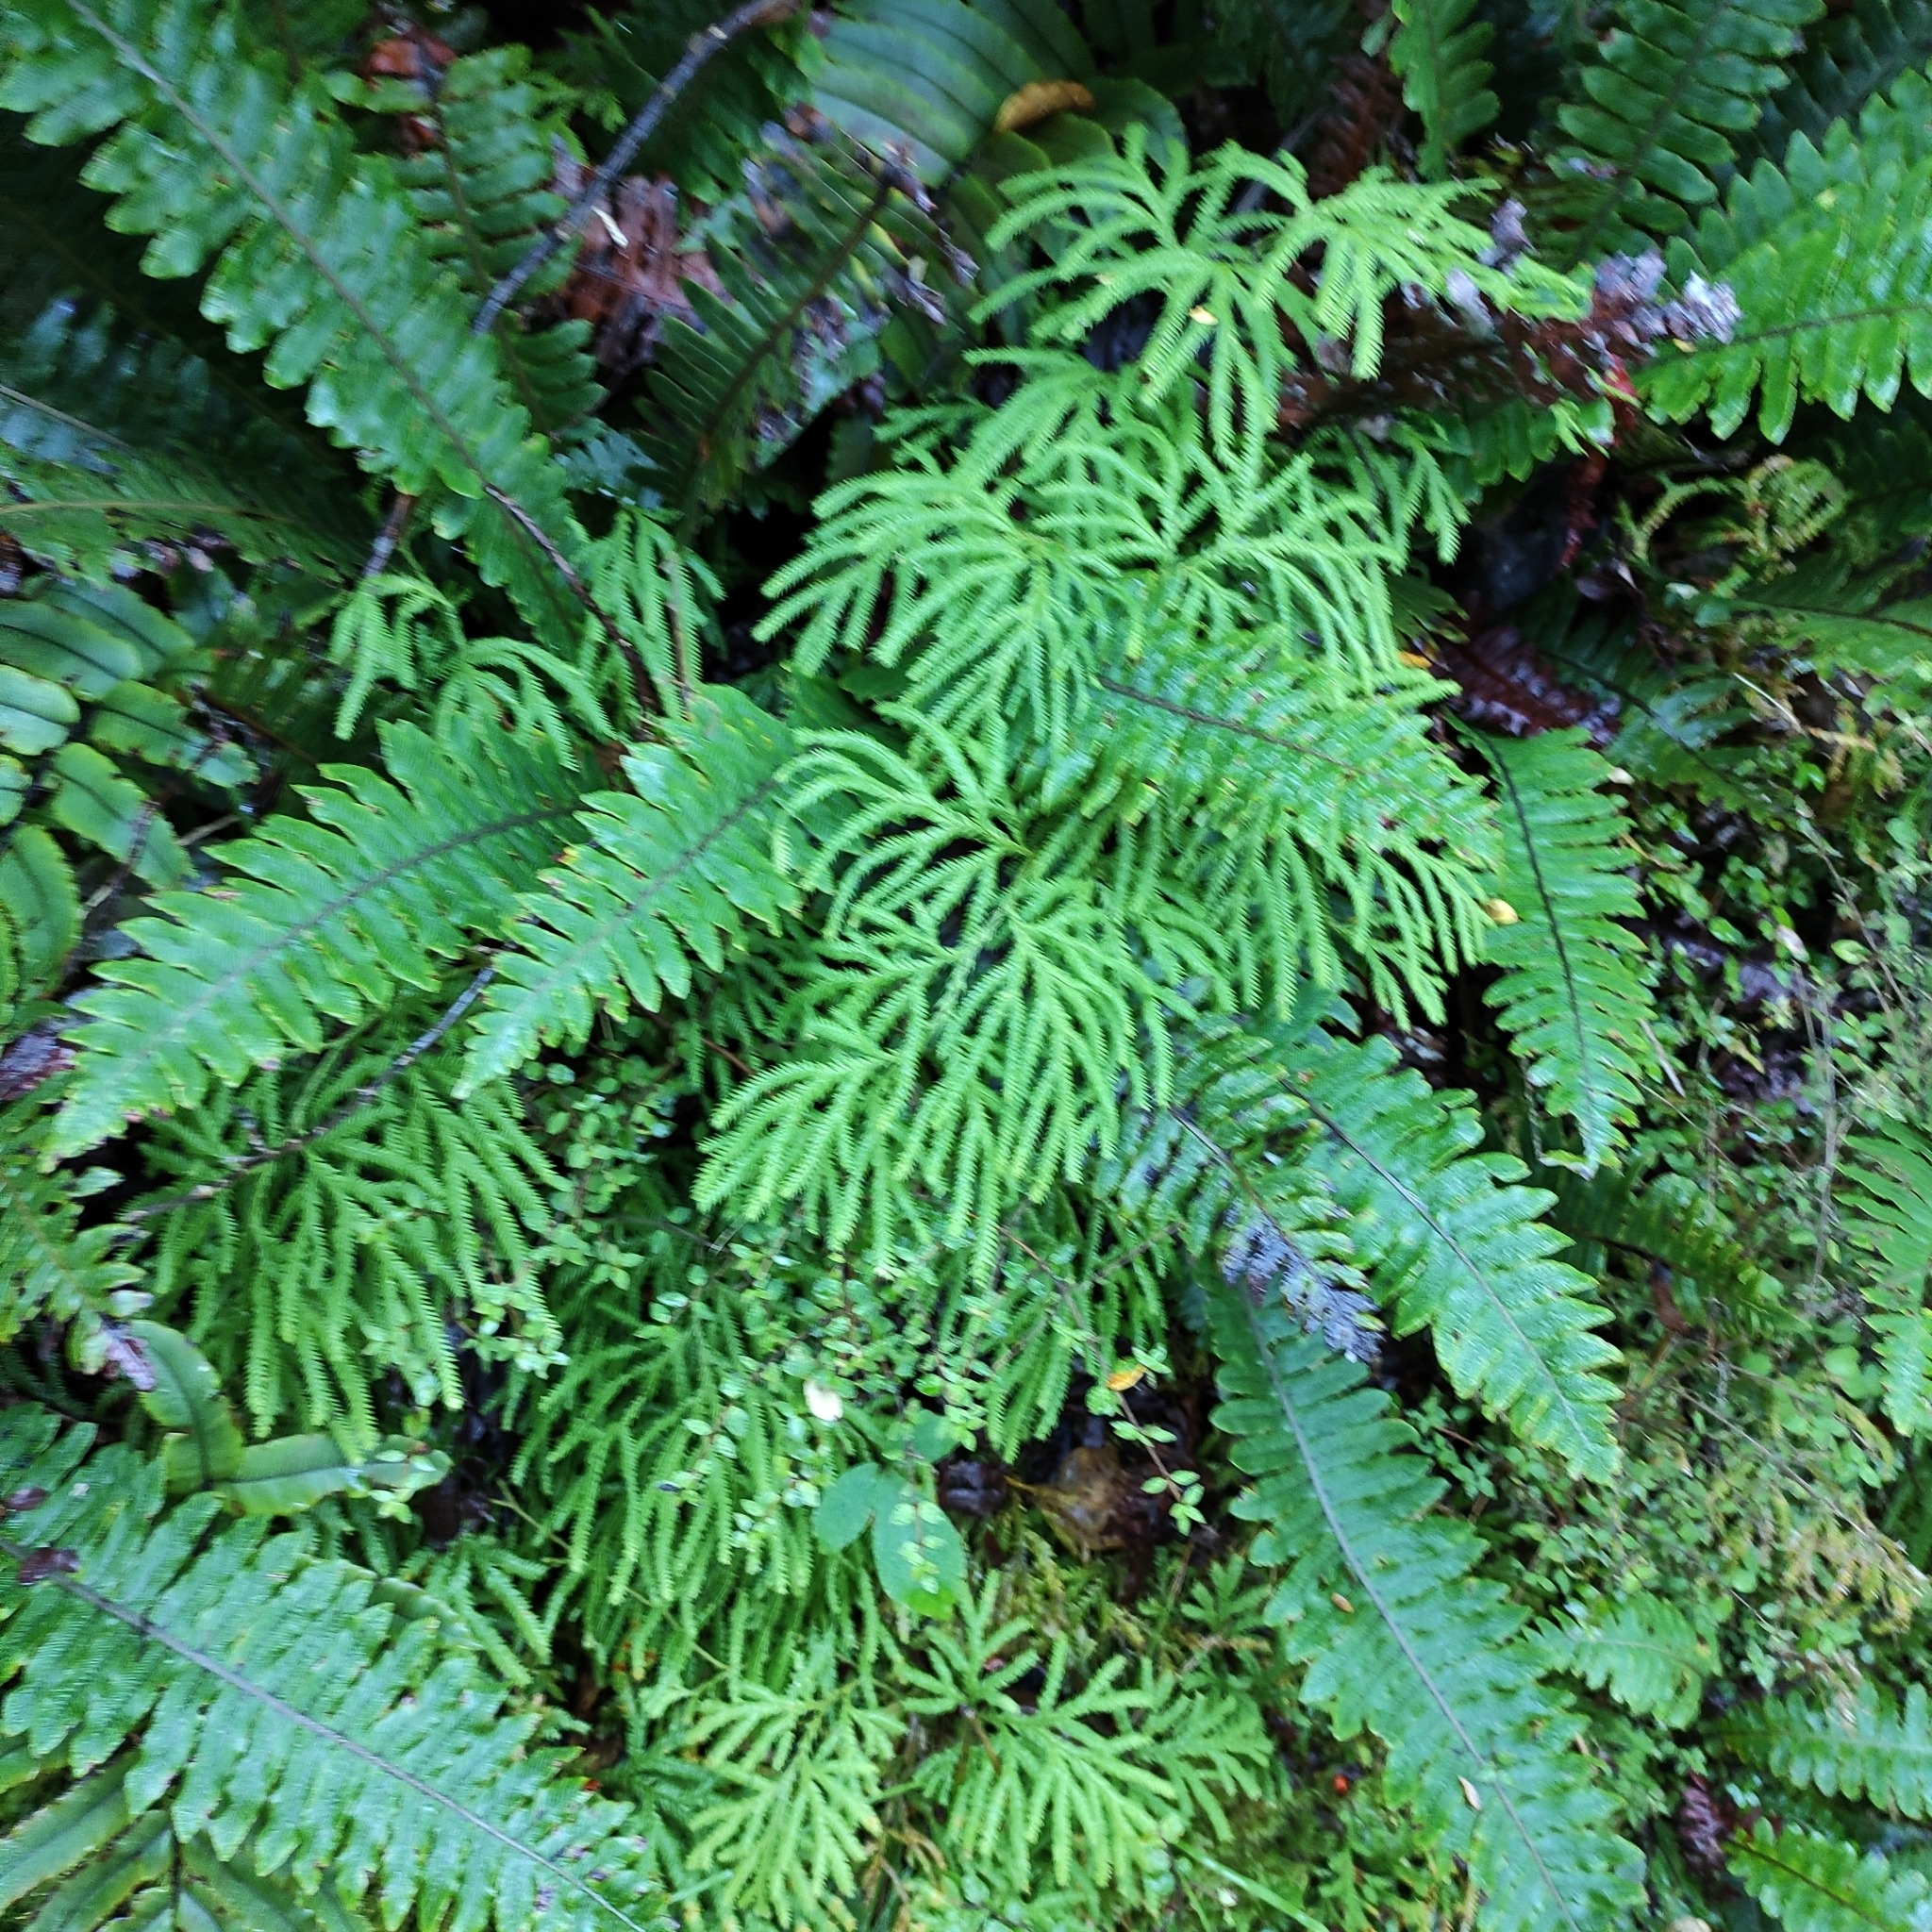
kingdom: Plantae
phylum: Tracheophyta
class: Lycopodiopsida
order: Lycopodiales
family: Lycopodiaceae
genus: Lycopodium
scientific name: Lycopodium volubile
